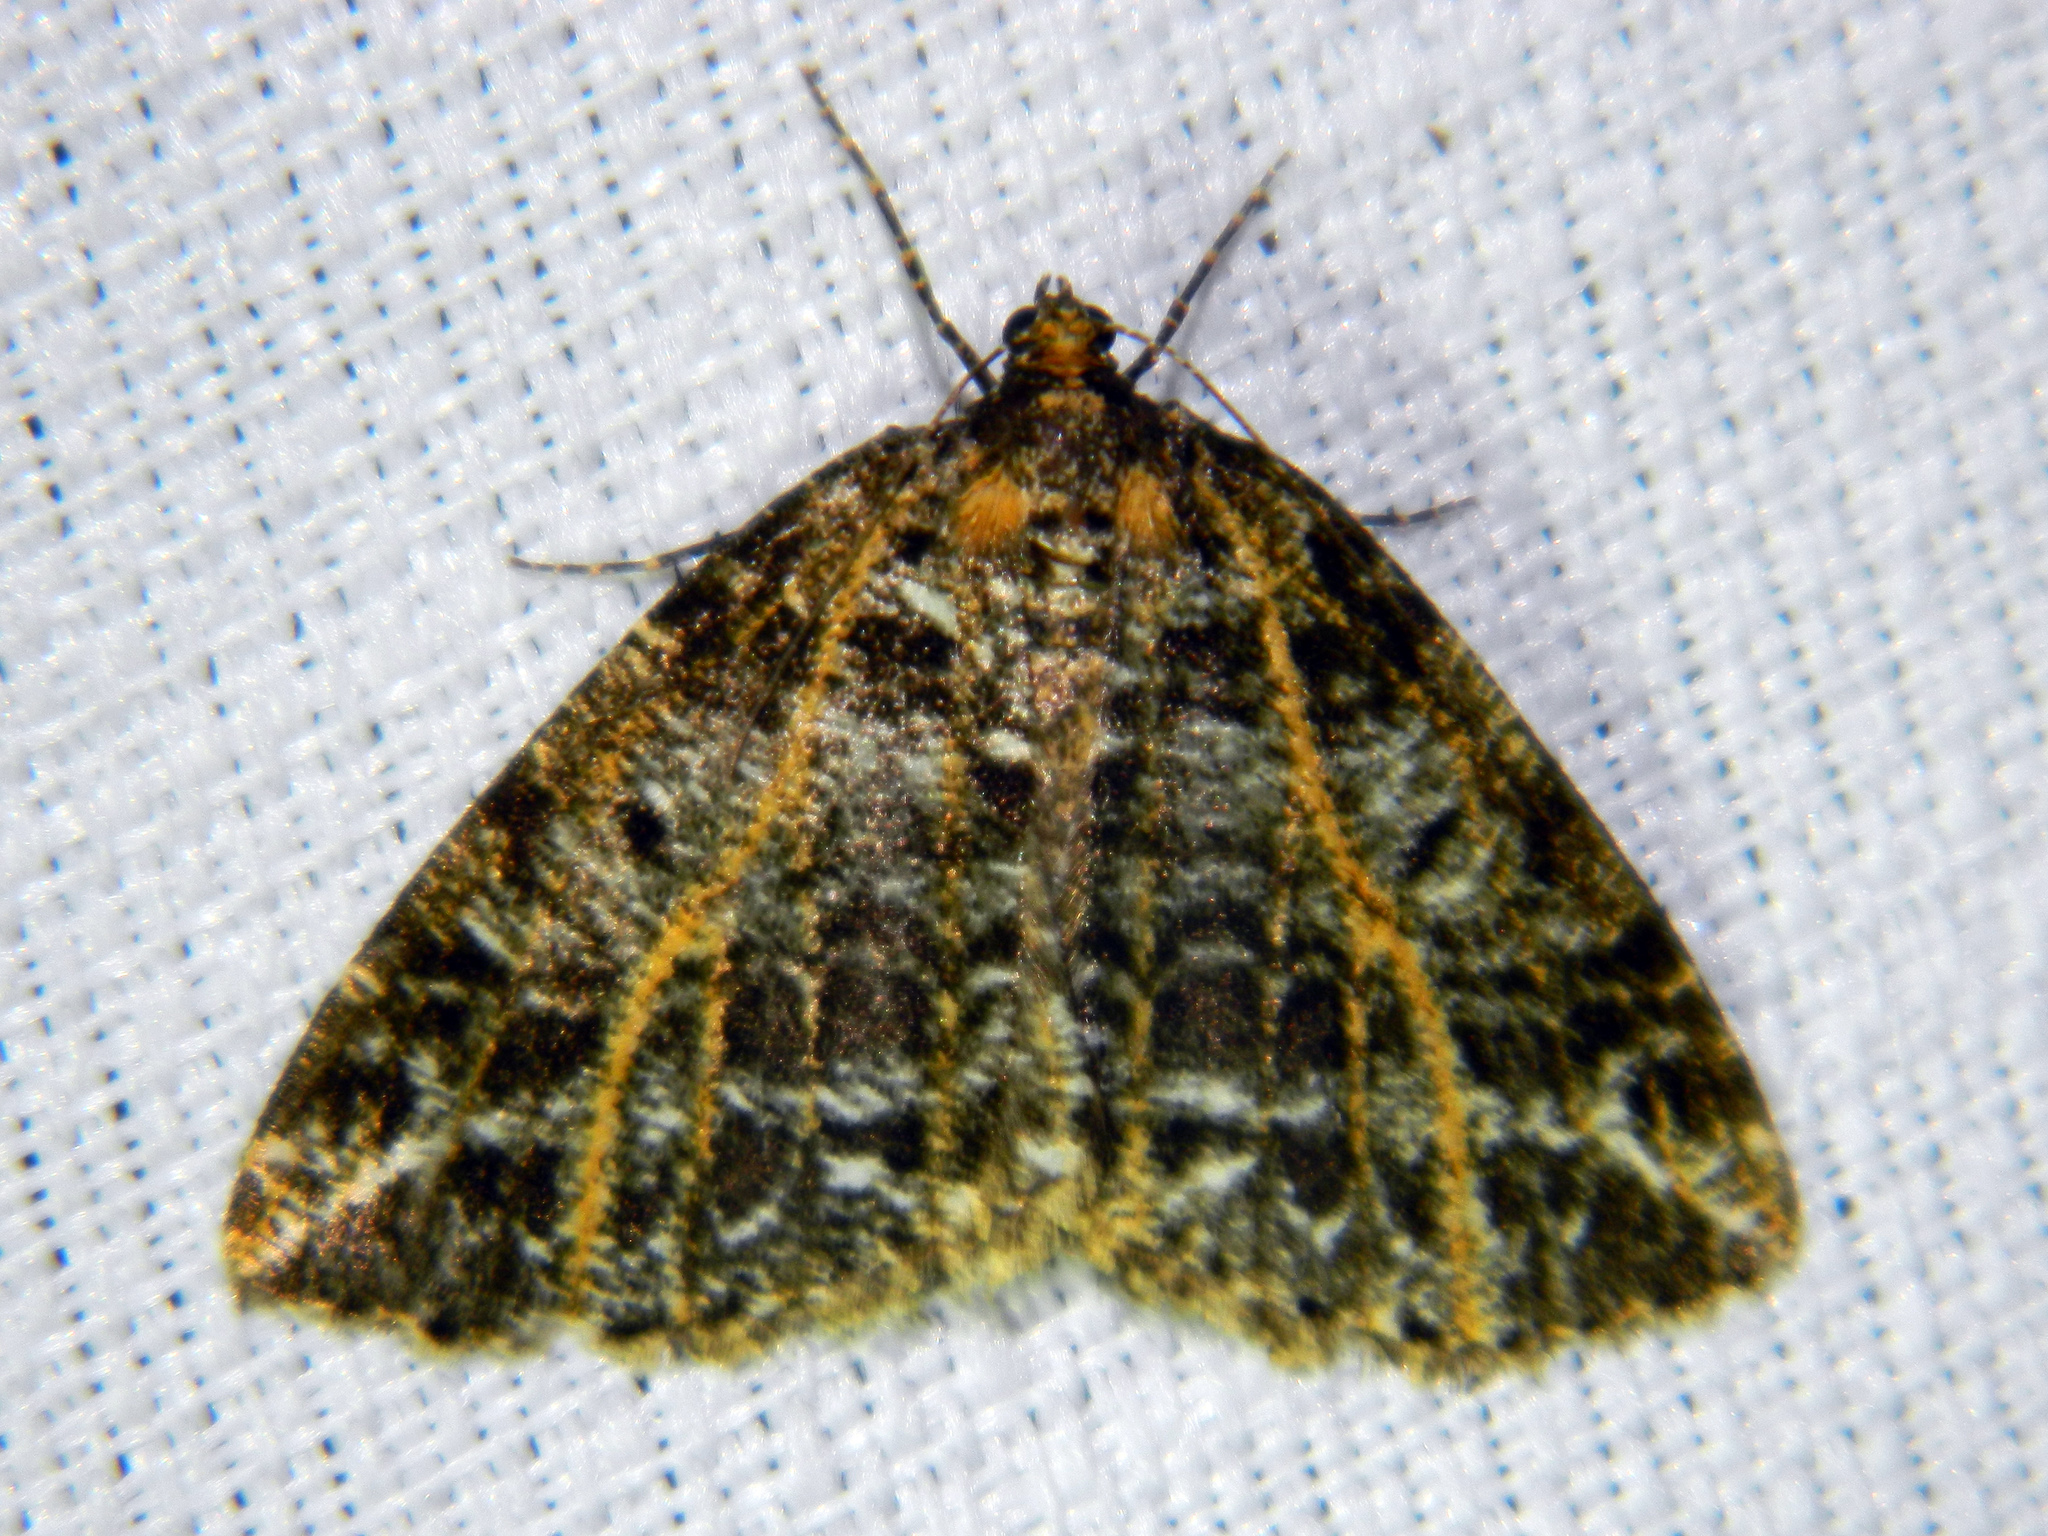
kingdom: Animalia
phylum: Arthropoda
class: Insecta
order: Lepidoptera
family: Geometridae
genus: Orthofidonia
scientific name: Orthofidonia flavivenata
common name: Yellow-veined geometer moth
